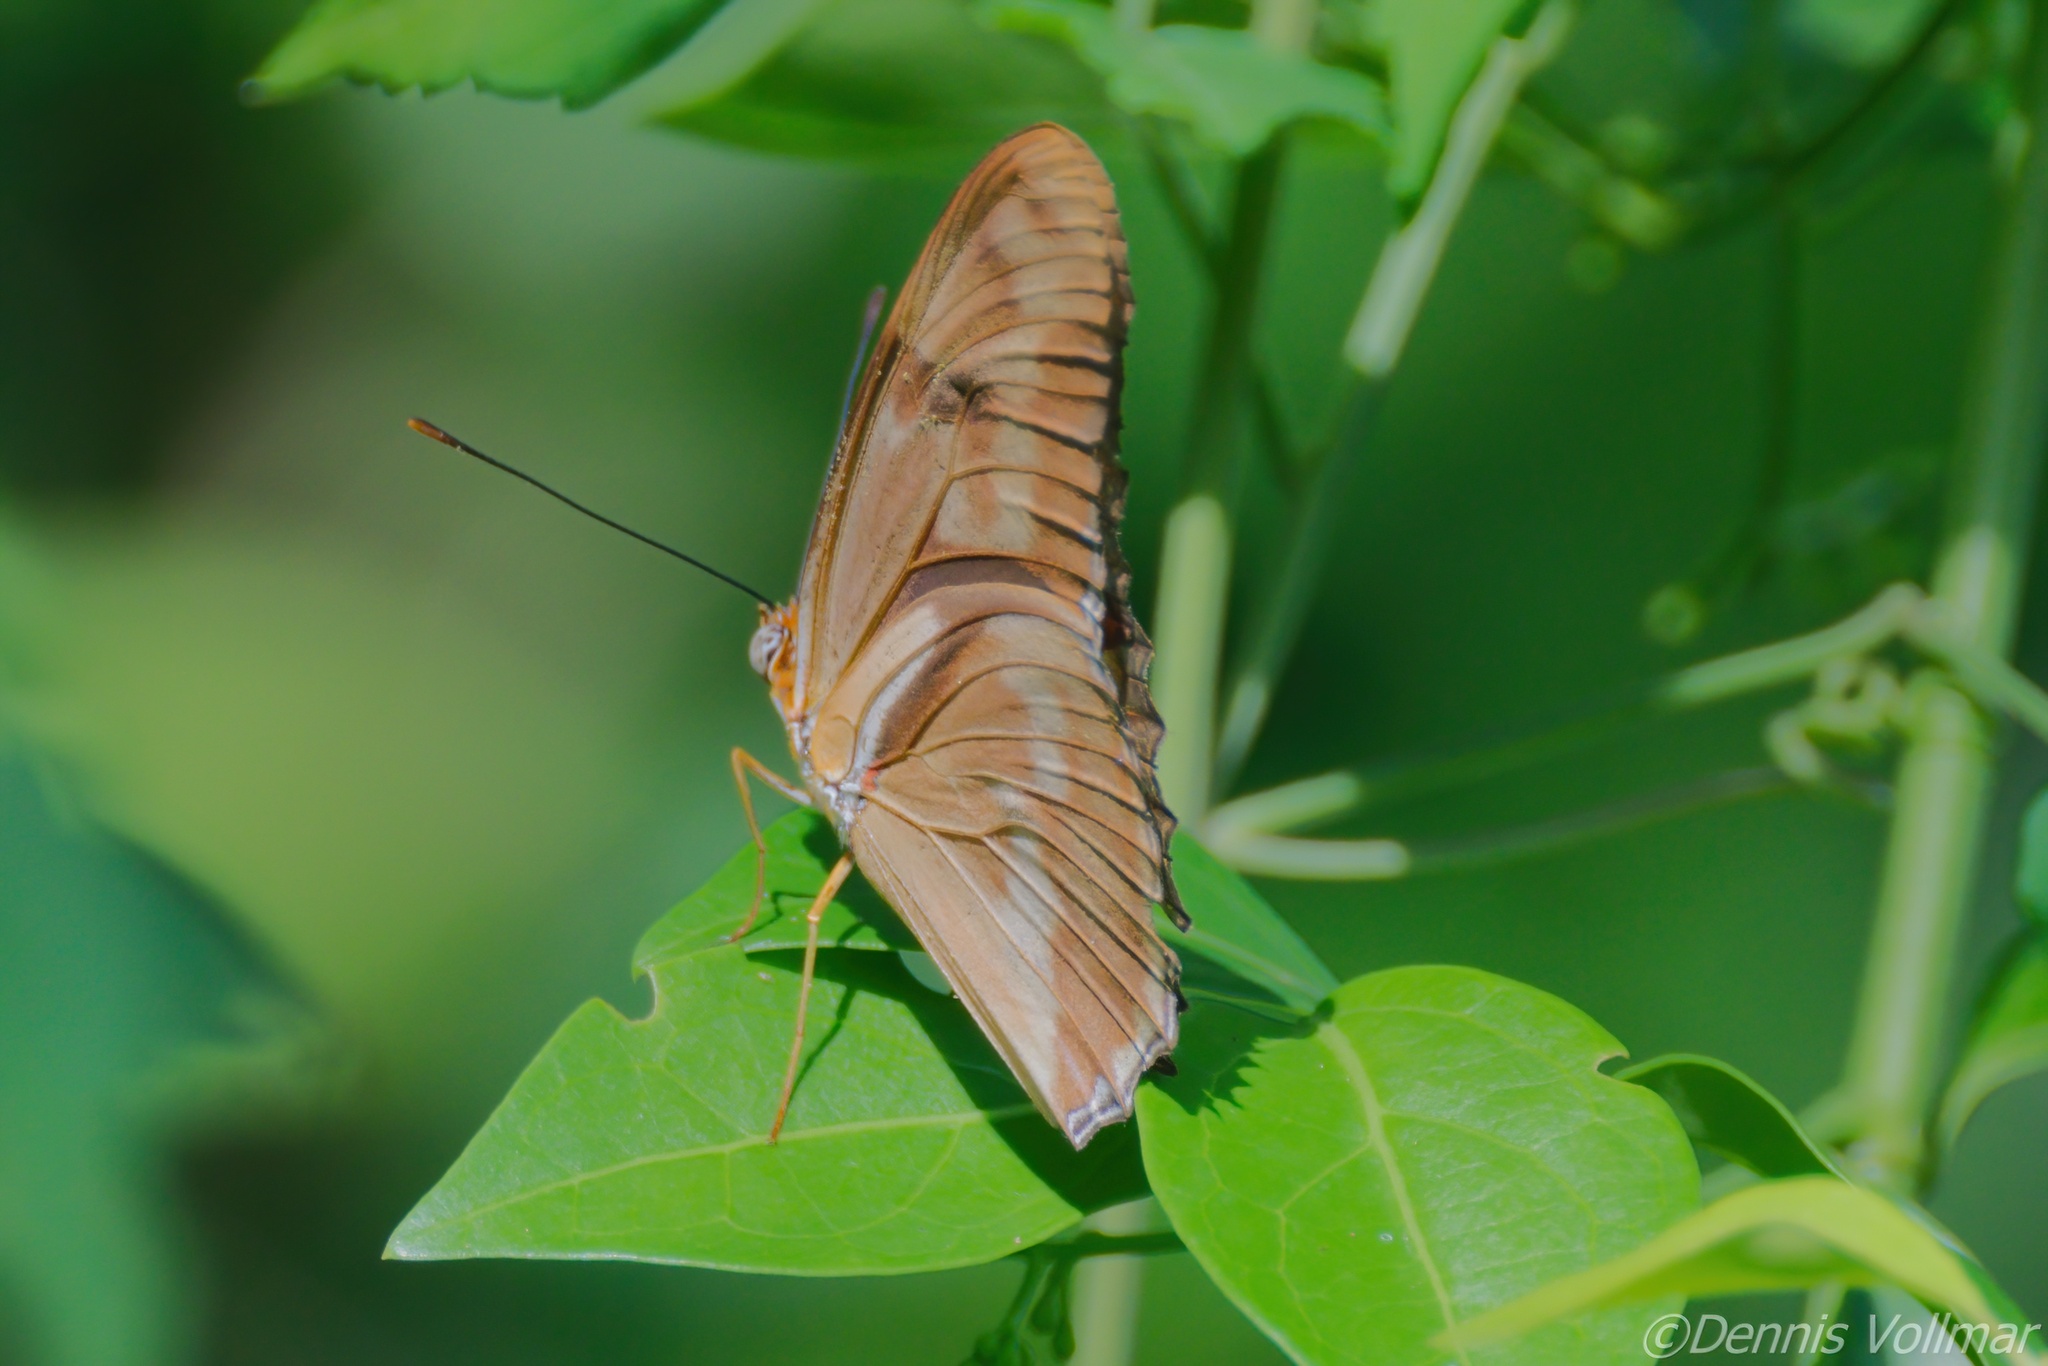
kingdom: Animalia
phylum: Arthropoda
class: Insecta
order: Lepidoptera
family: Nymphalidae
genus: Dryas
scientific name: Dryas iulia
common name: Flambeau
